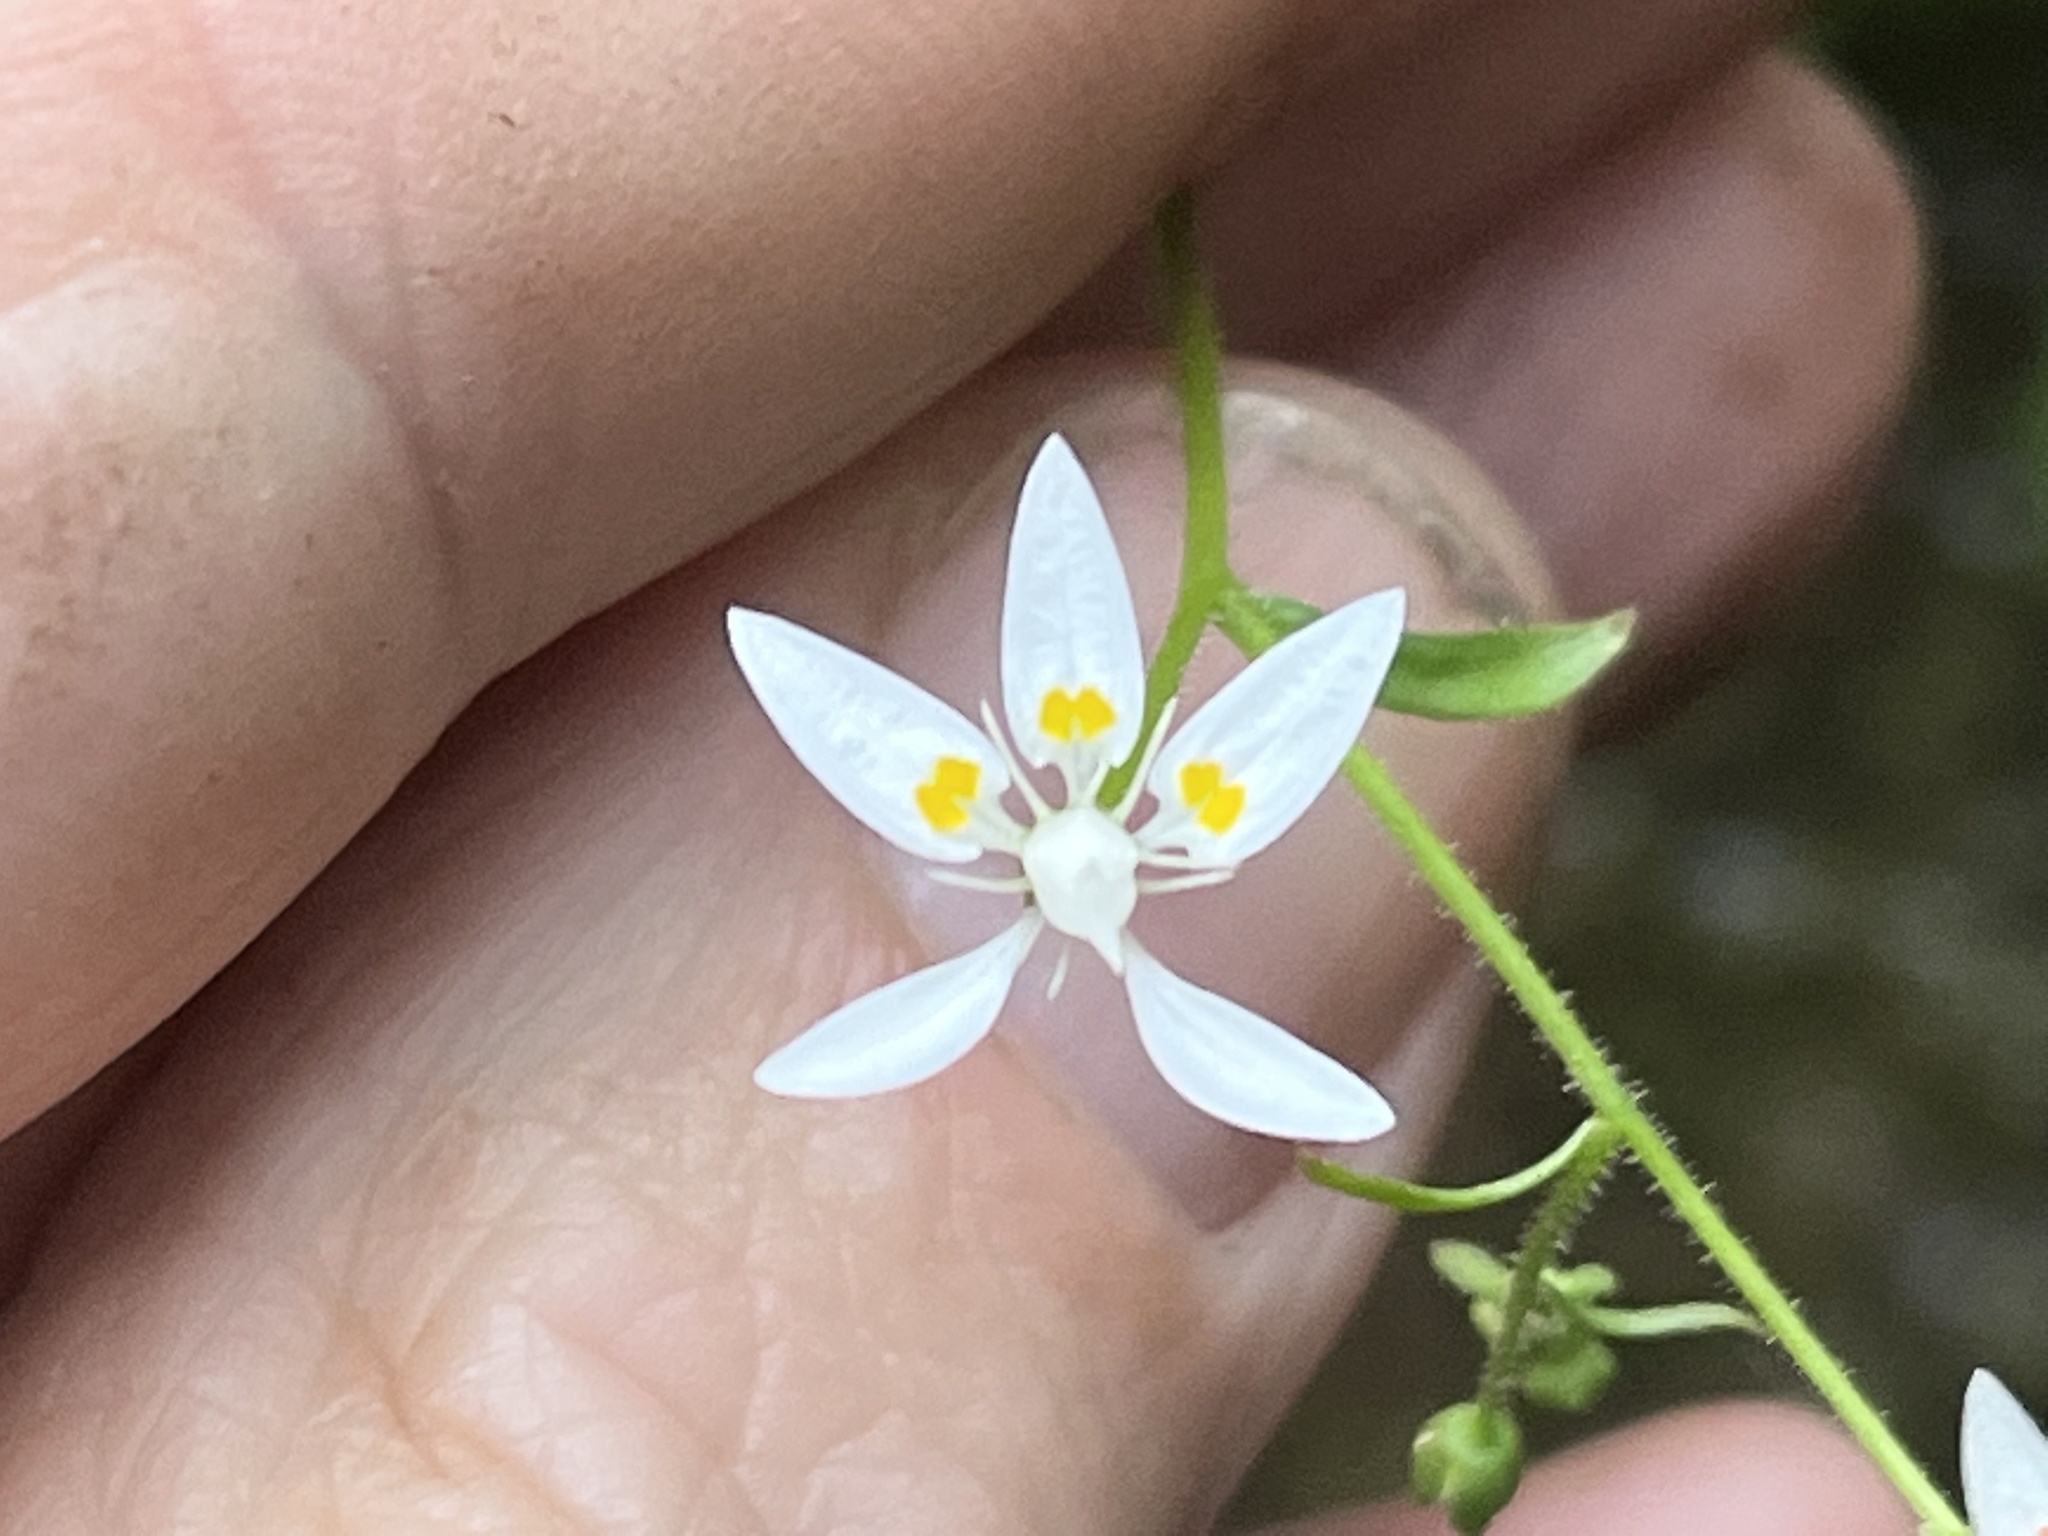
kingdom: Plantae
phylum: Tracheophyta
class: Magnoliopsida
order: Saxifragales
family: Saxifragaceae
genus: Micranthes
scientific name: Micranthes petiolaris
